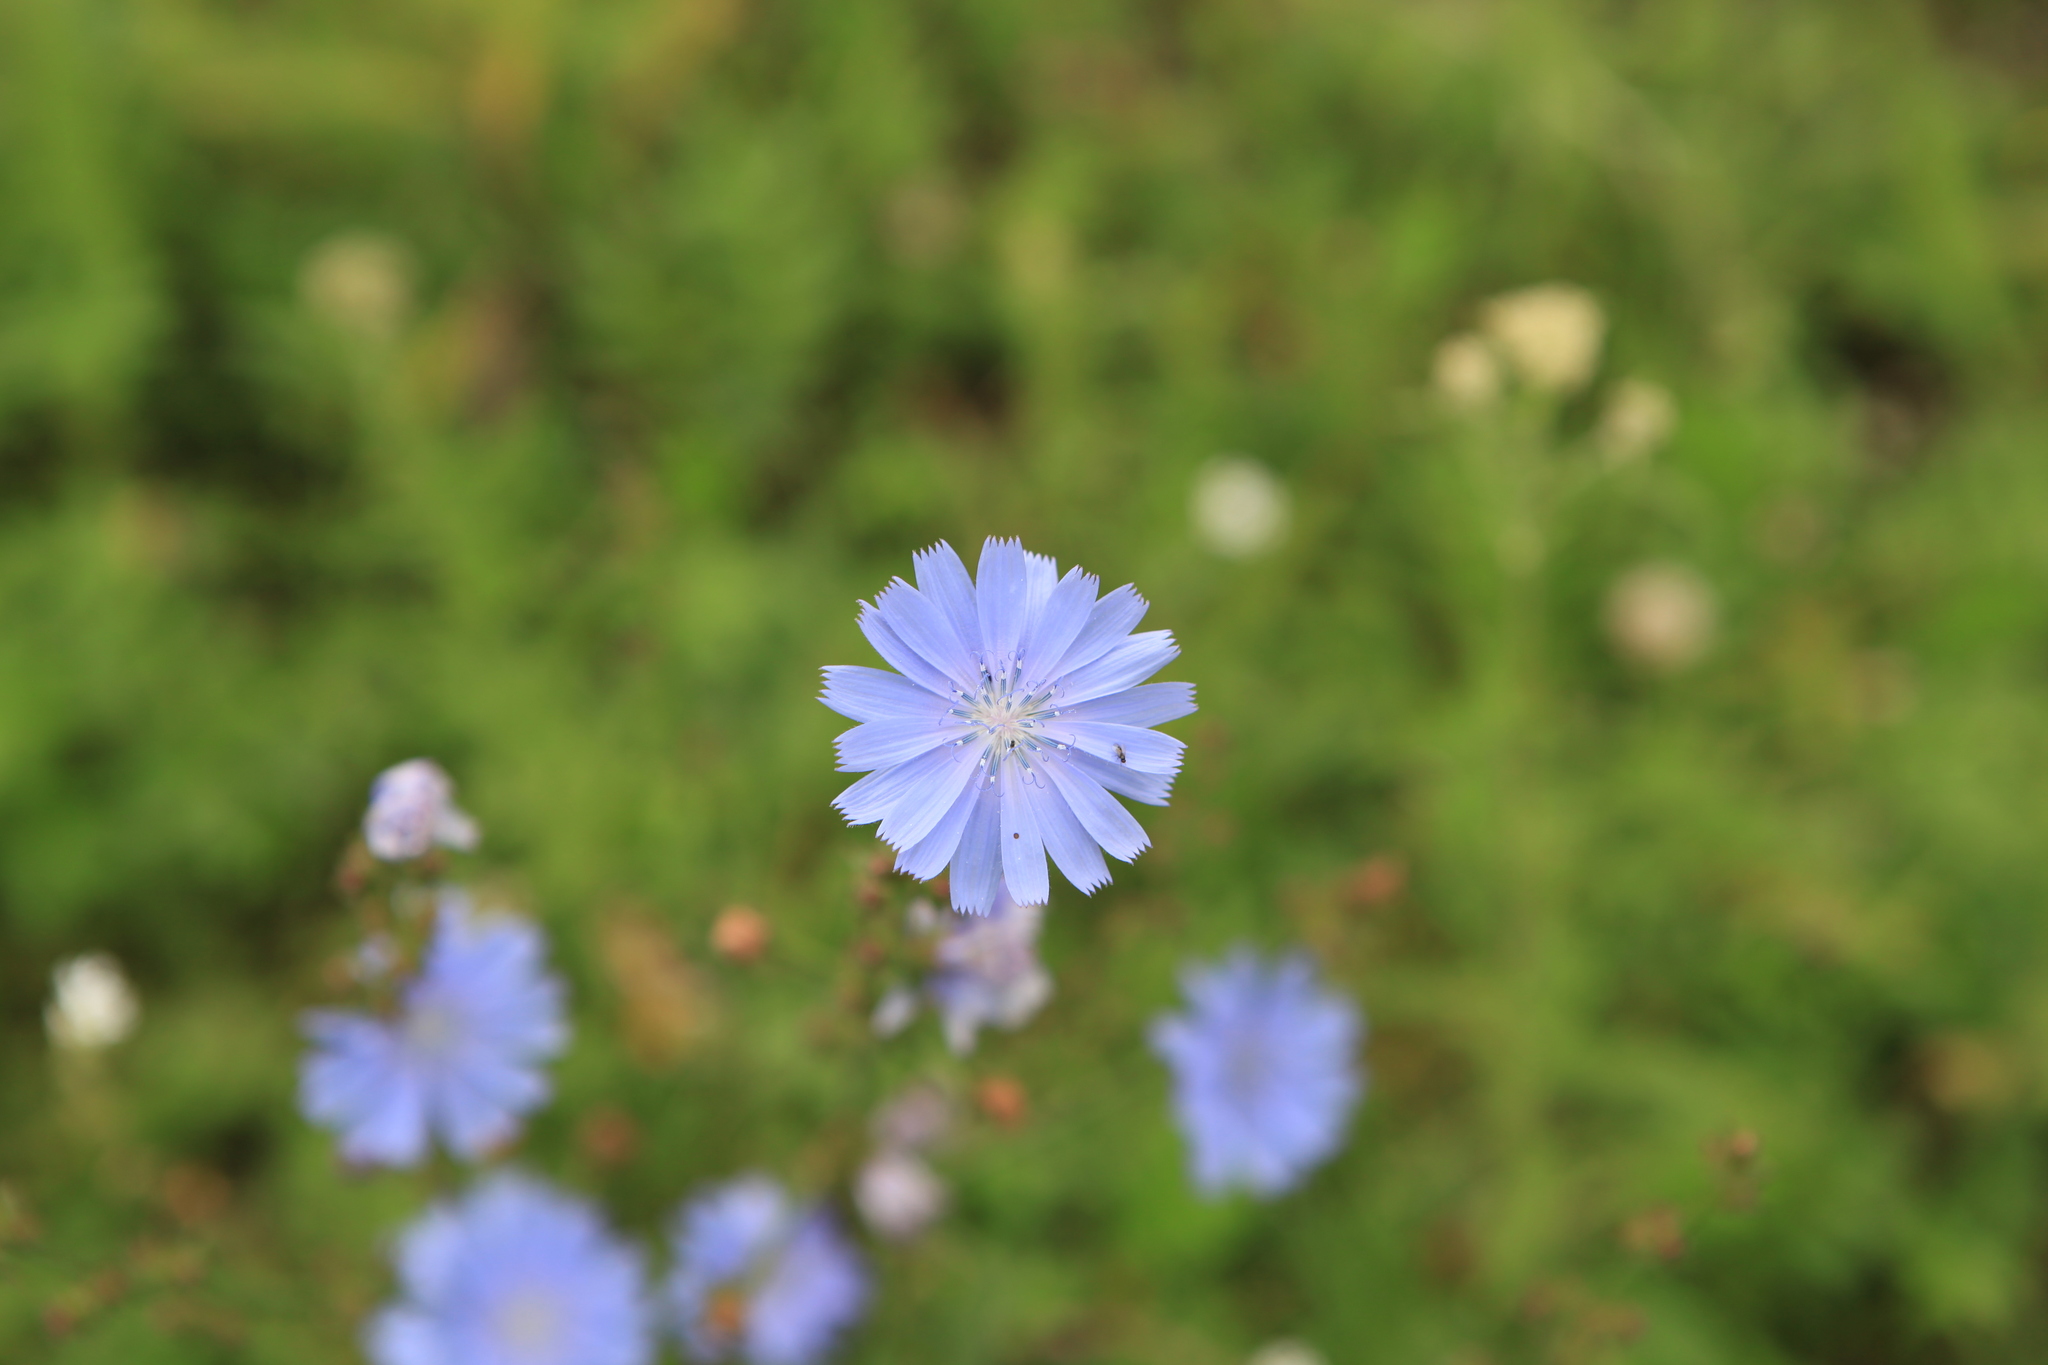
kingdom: Plantae
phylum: Tracheophyta
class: Magnoliopsida
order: Asterales
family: Asteraceae
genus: Cichorium
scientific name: Cichorium intybus
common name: Chicory
